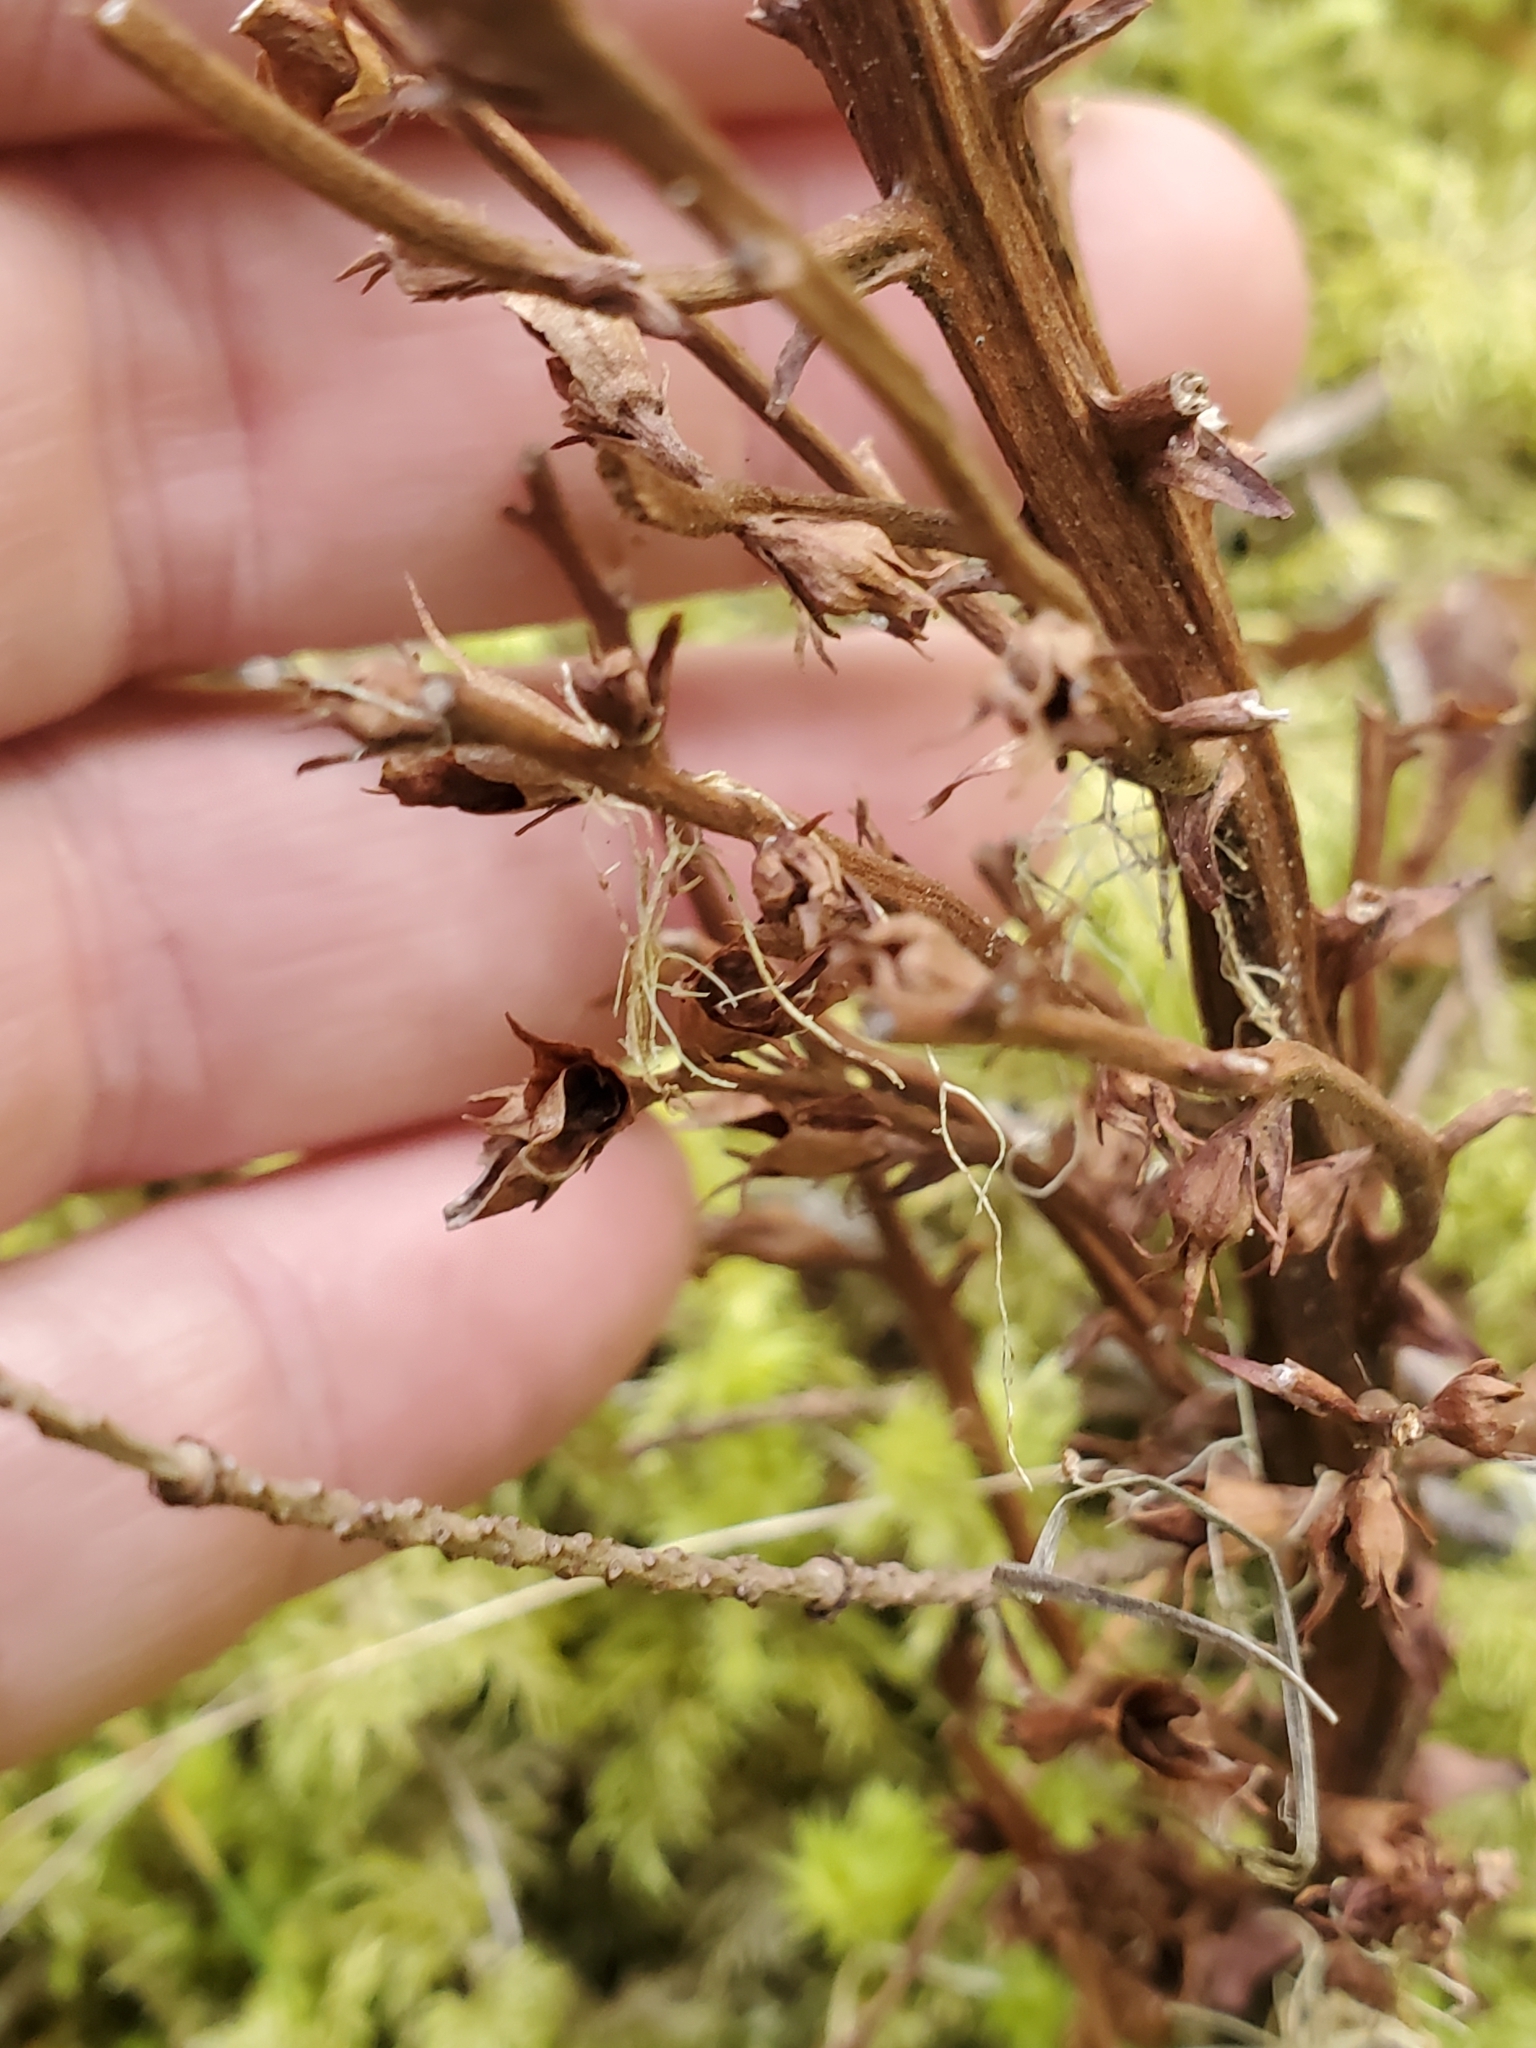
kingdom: Plantae
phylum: Tracheophyta
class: Magnoliopsida
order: Lamiales
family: Orobanchaceae
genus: Aphyllon
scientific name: Aphyllon pinorum
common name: Conifer broomrape
